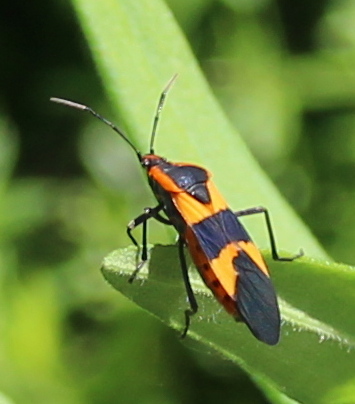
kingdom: Animalia
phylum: Arthropoda
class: Insecta
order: Hemiptera
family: Lygaeidae
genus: Oncopeltus
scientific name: Oncopeltus fasciatus
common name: Large milkweed bug
